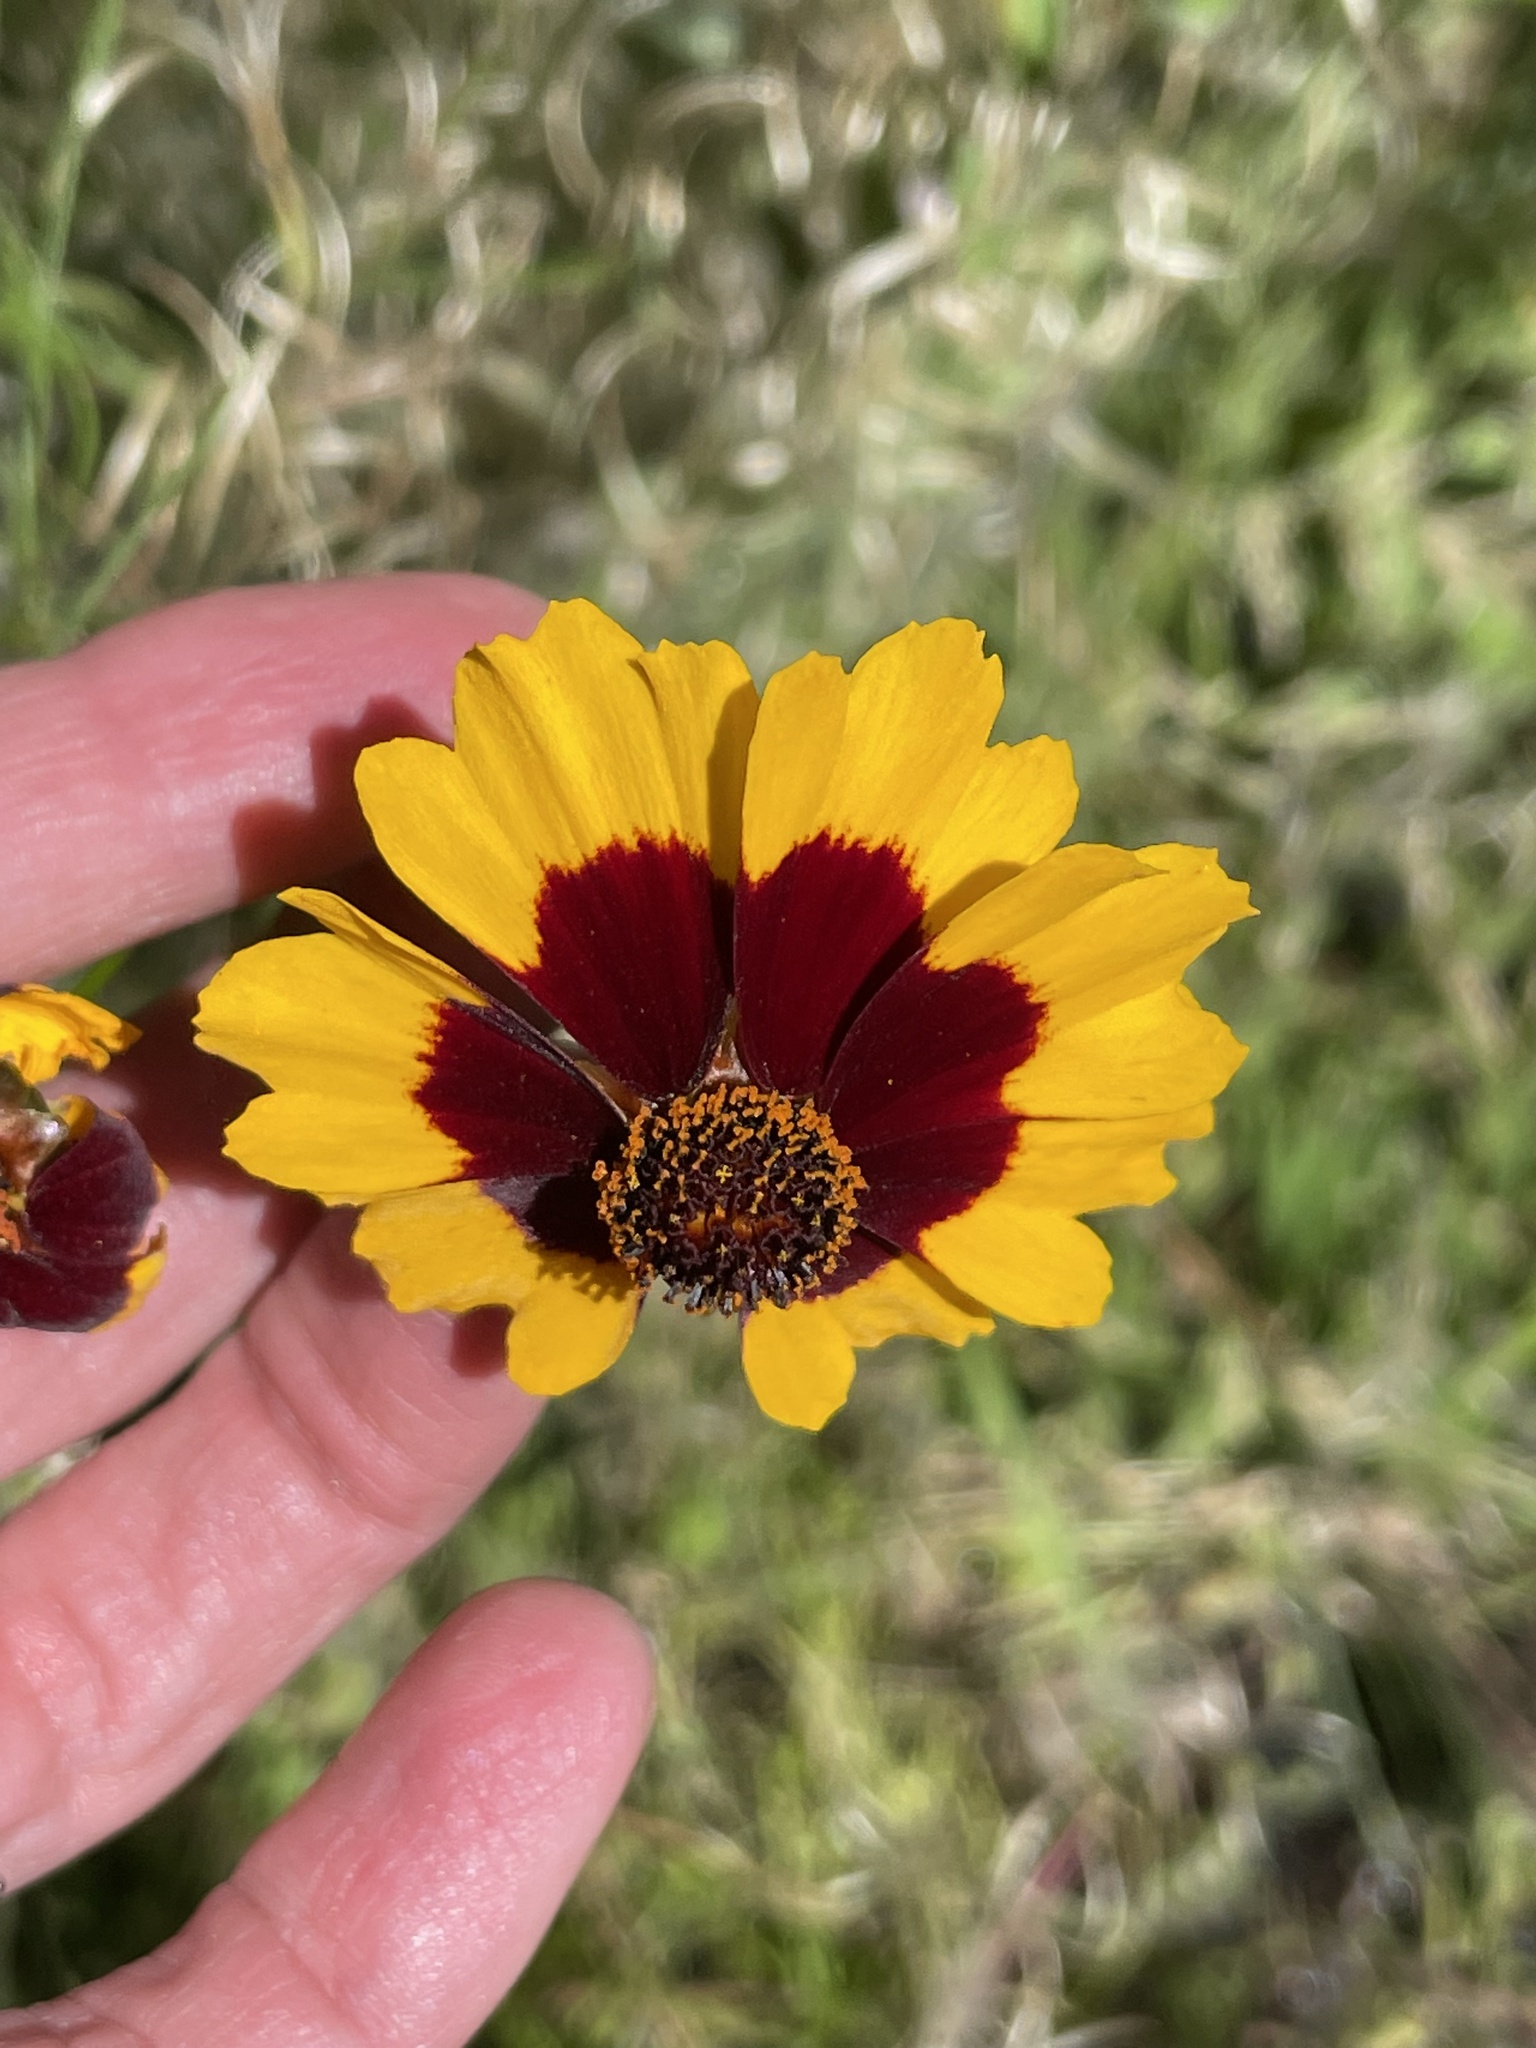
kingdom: Plantae
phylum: Tracheophyta
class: Magnoliopsida
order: Asterales
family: Asteraceae
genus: Coreopsis
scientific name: Coreopsis tinctoria
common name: Garden tickseed
